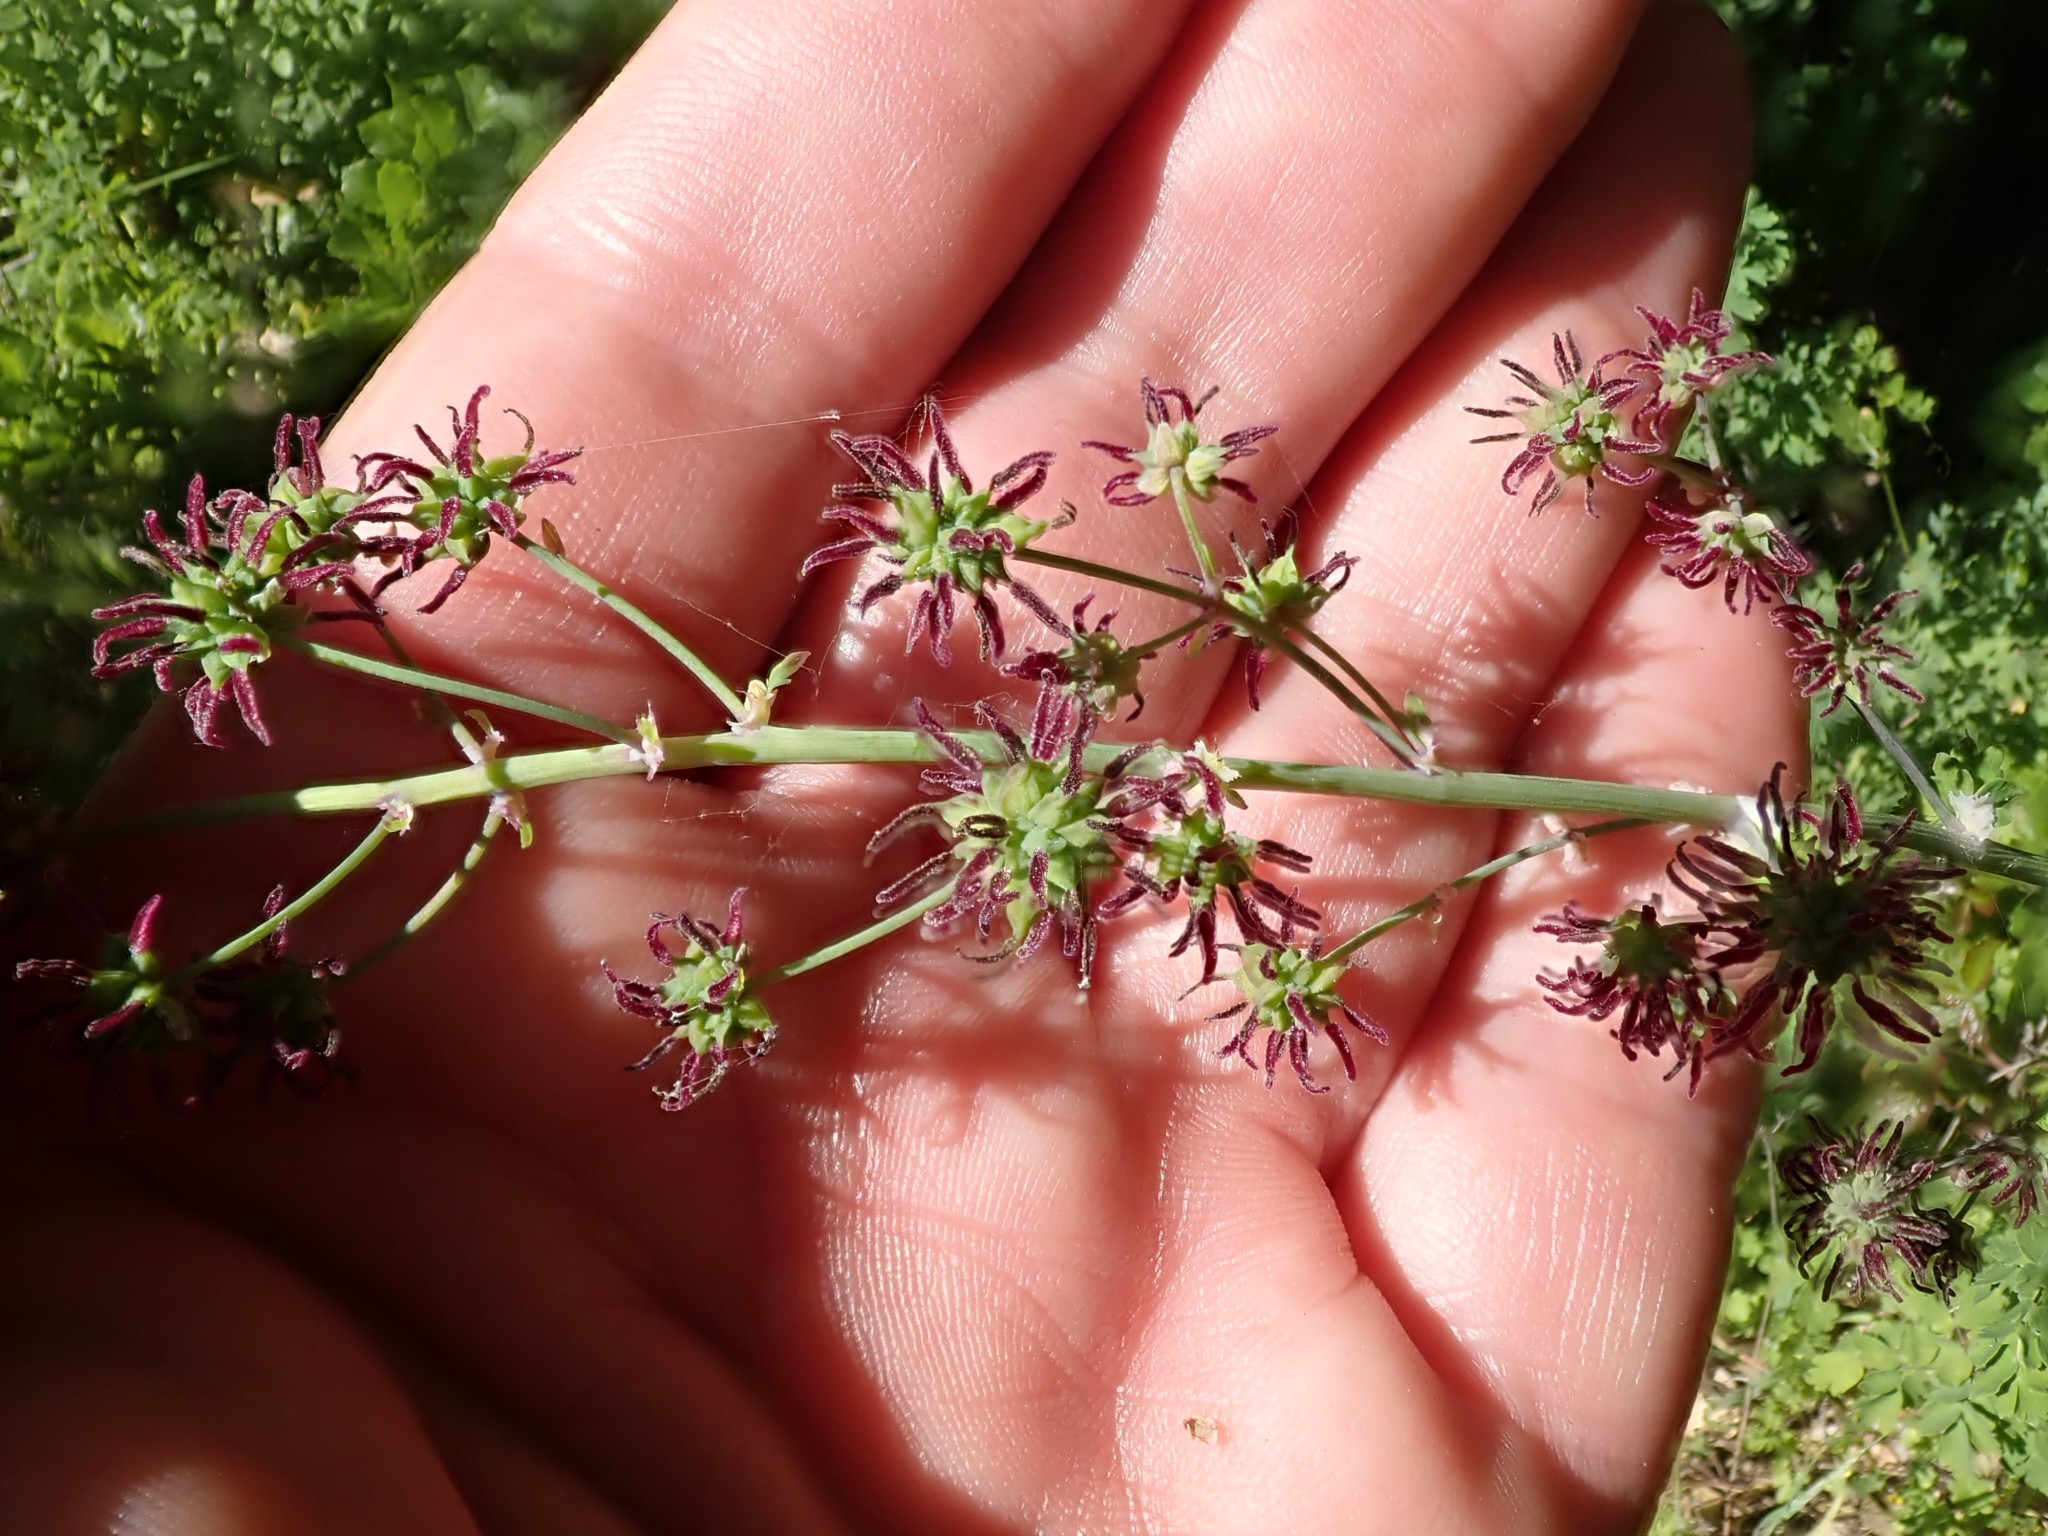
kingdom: Plantae
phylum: Tracheophyta
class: Magnoliopsida
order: Ranunculales
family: Ranunculaceae
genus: Thalictrum
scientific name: Thalictrum fendleri
